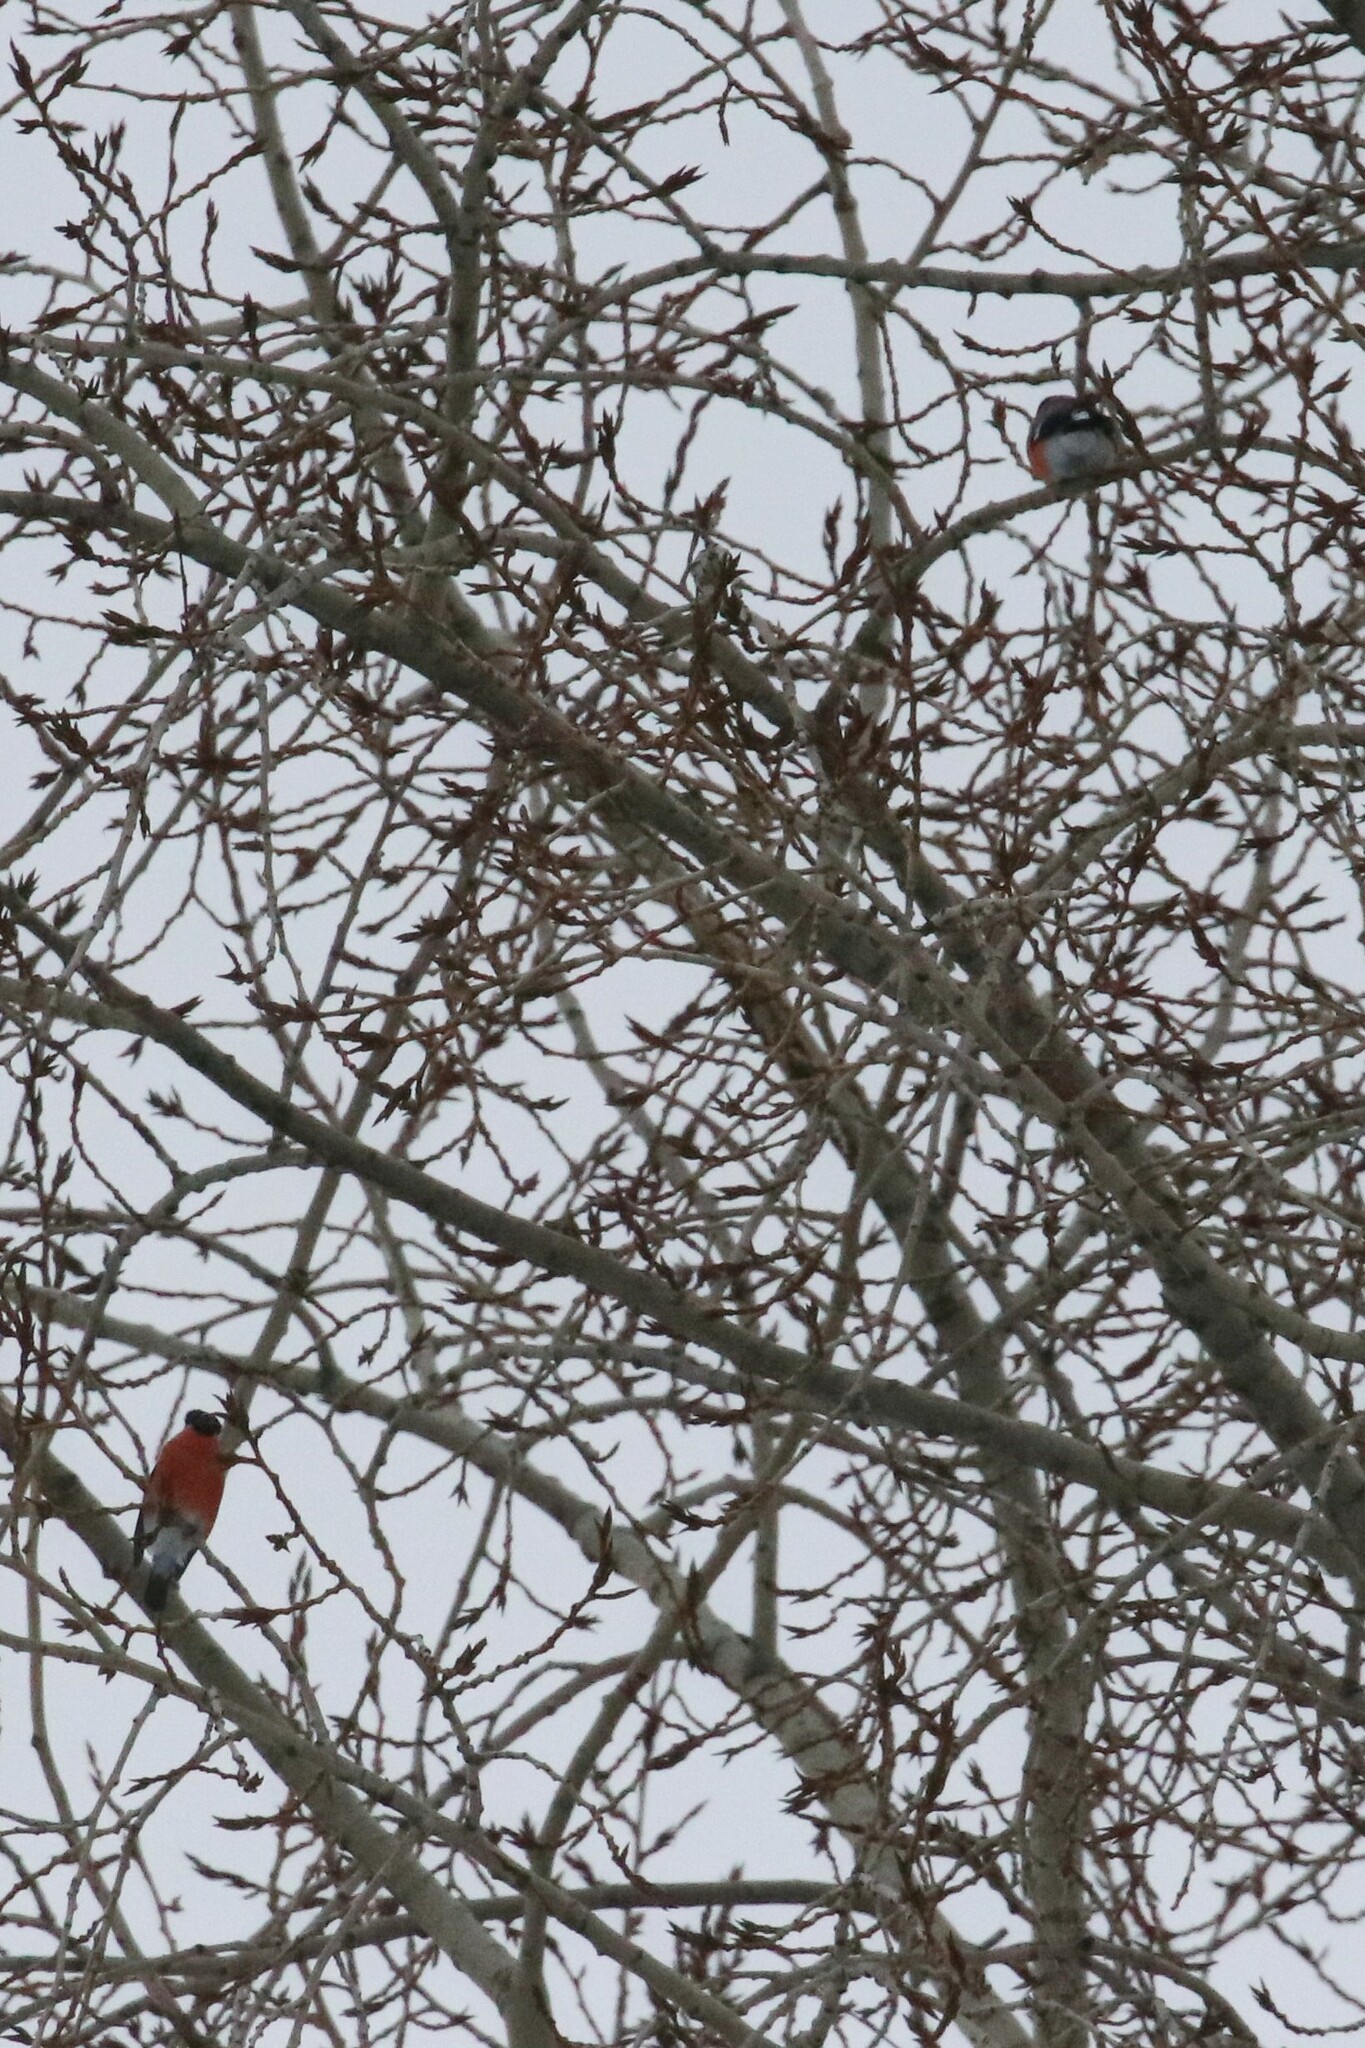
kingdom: Animalia
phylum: Chordata
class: Aves
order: Passeriformes
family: Fringillidae
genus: Pyrrhula
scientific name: Pyrrhula pyrrhula
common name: Eurasian bullfinch
